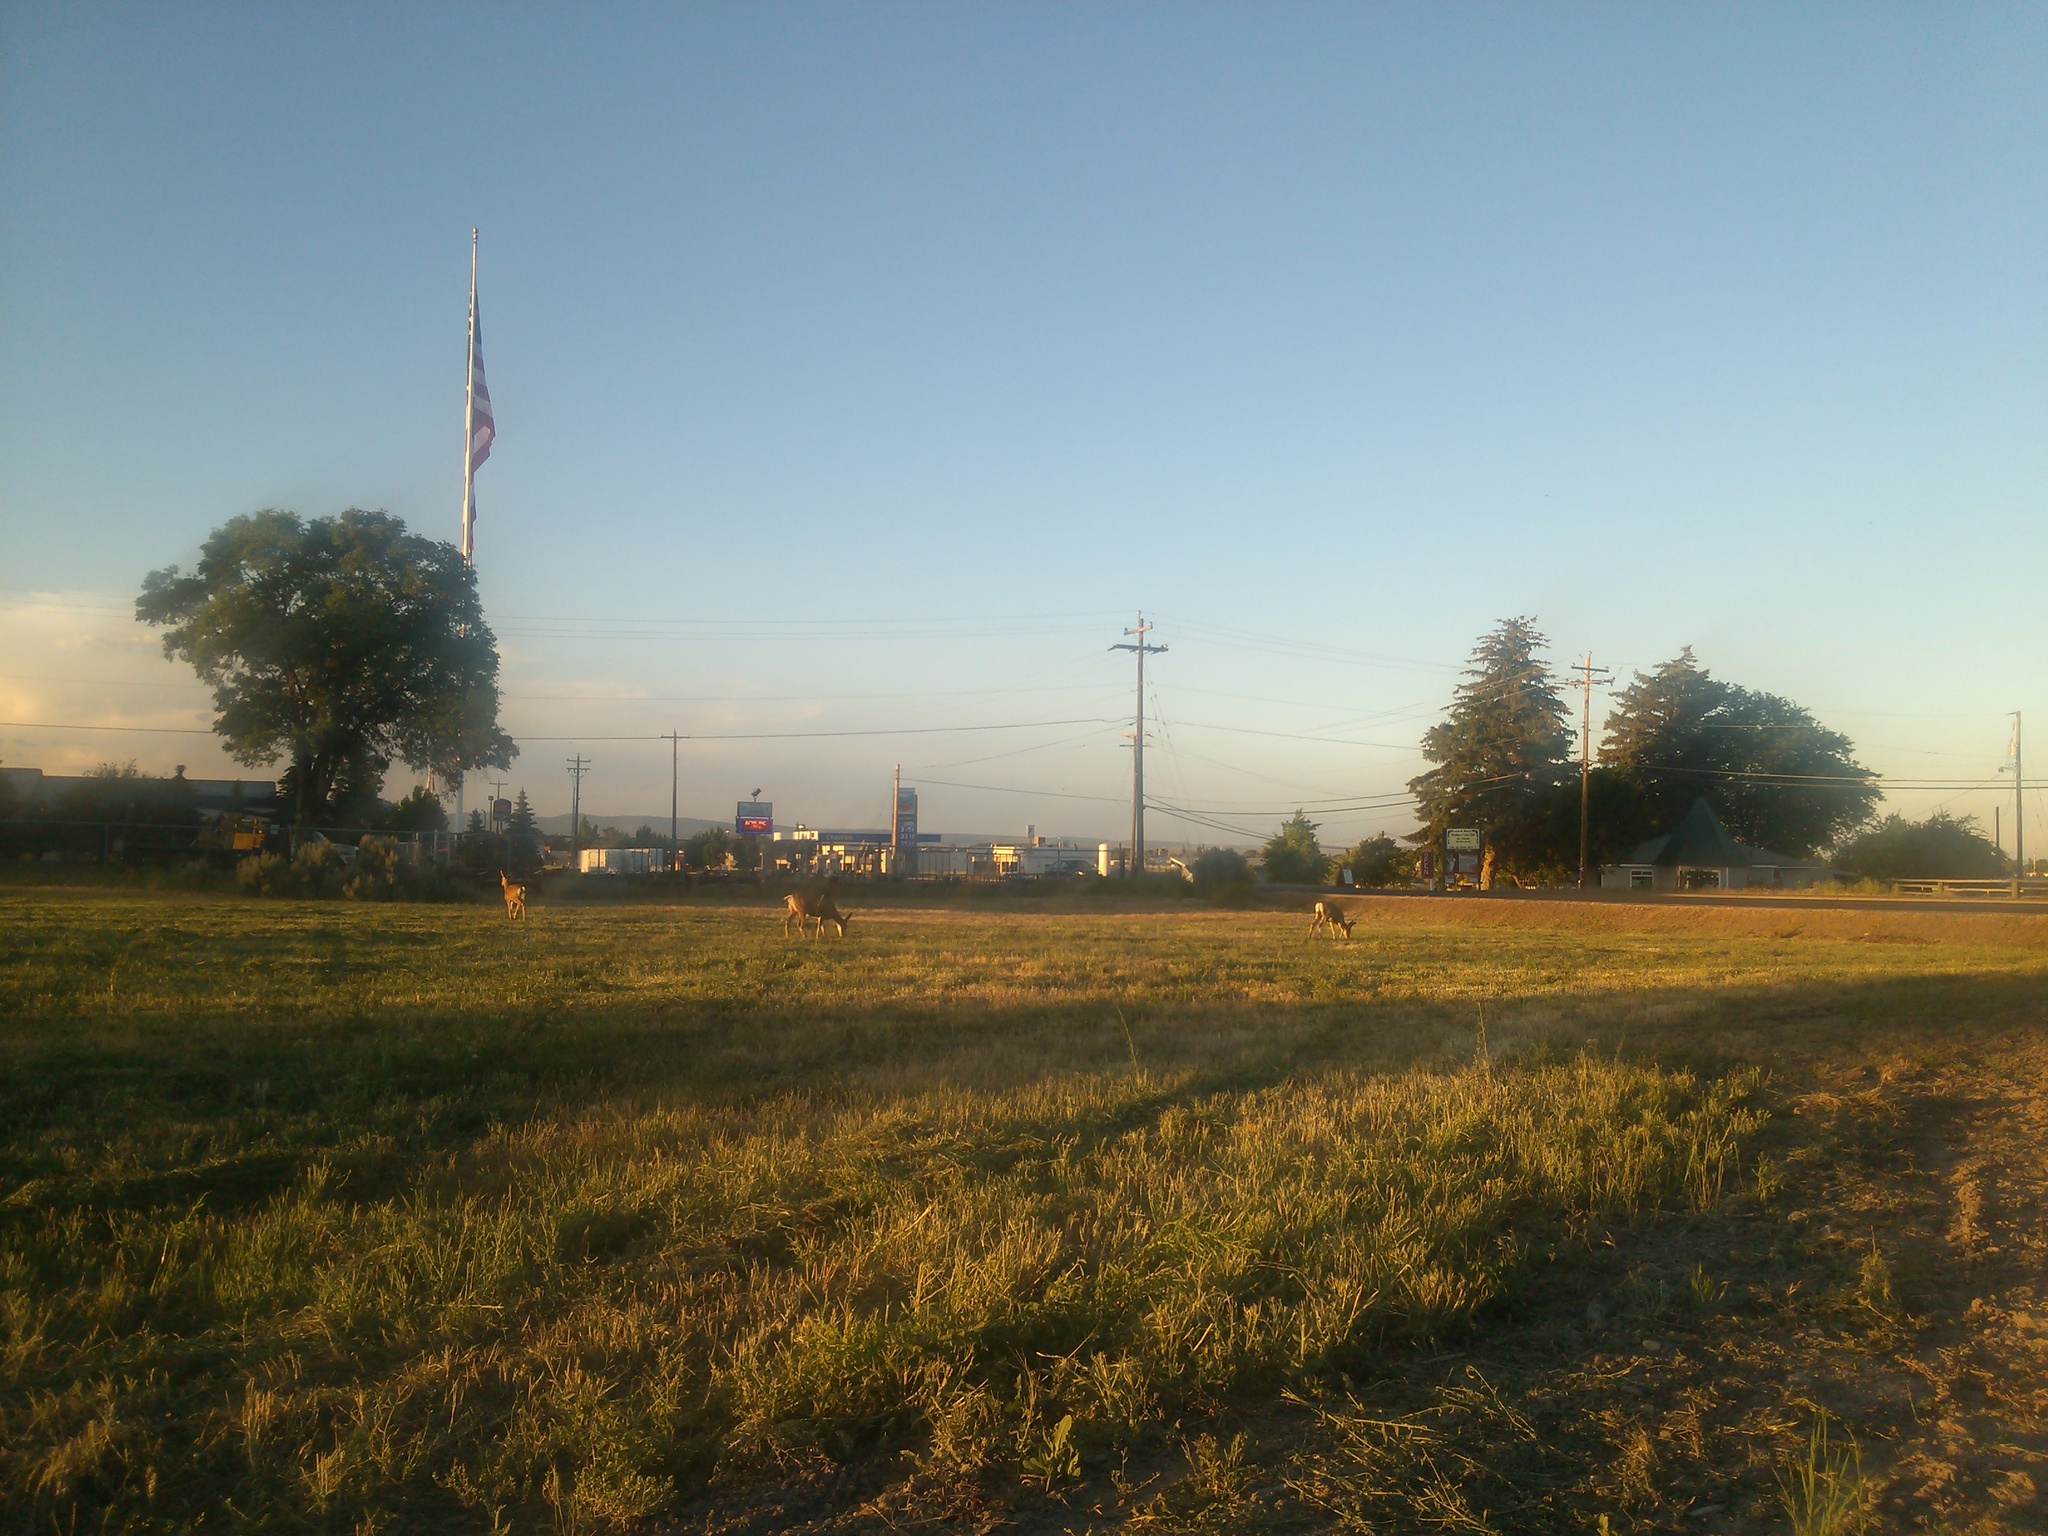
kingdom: Animalia
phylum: Chordata
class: Mammalia
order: Artiodactyla
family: Cervidae
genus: Odocoileus
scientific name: Odocoileus hemionus
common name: Mule deer
